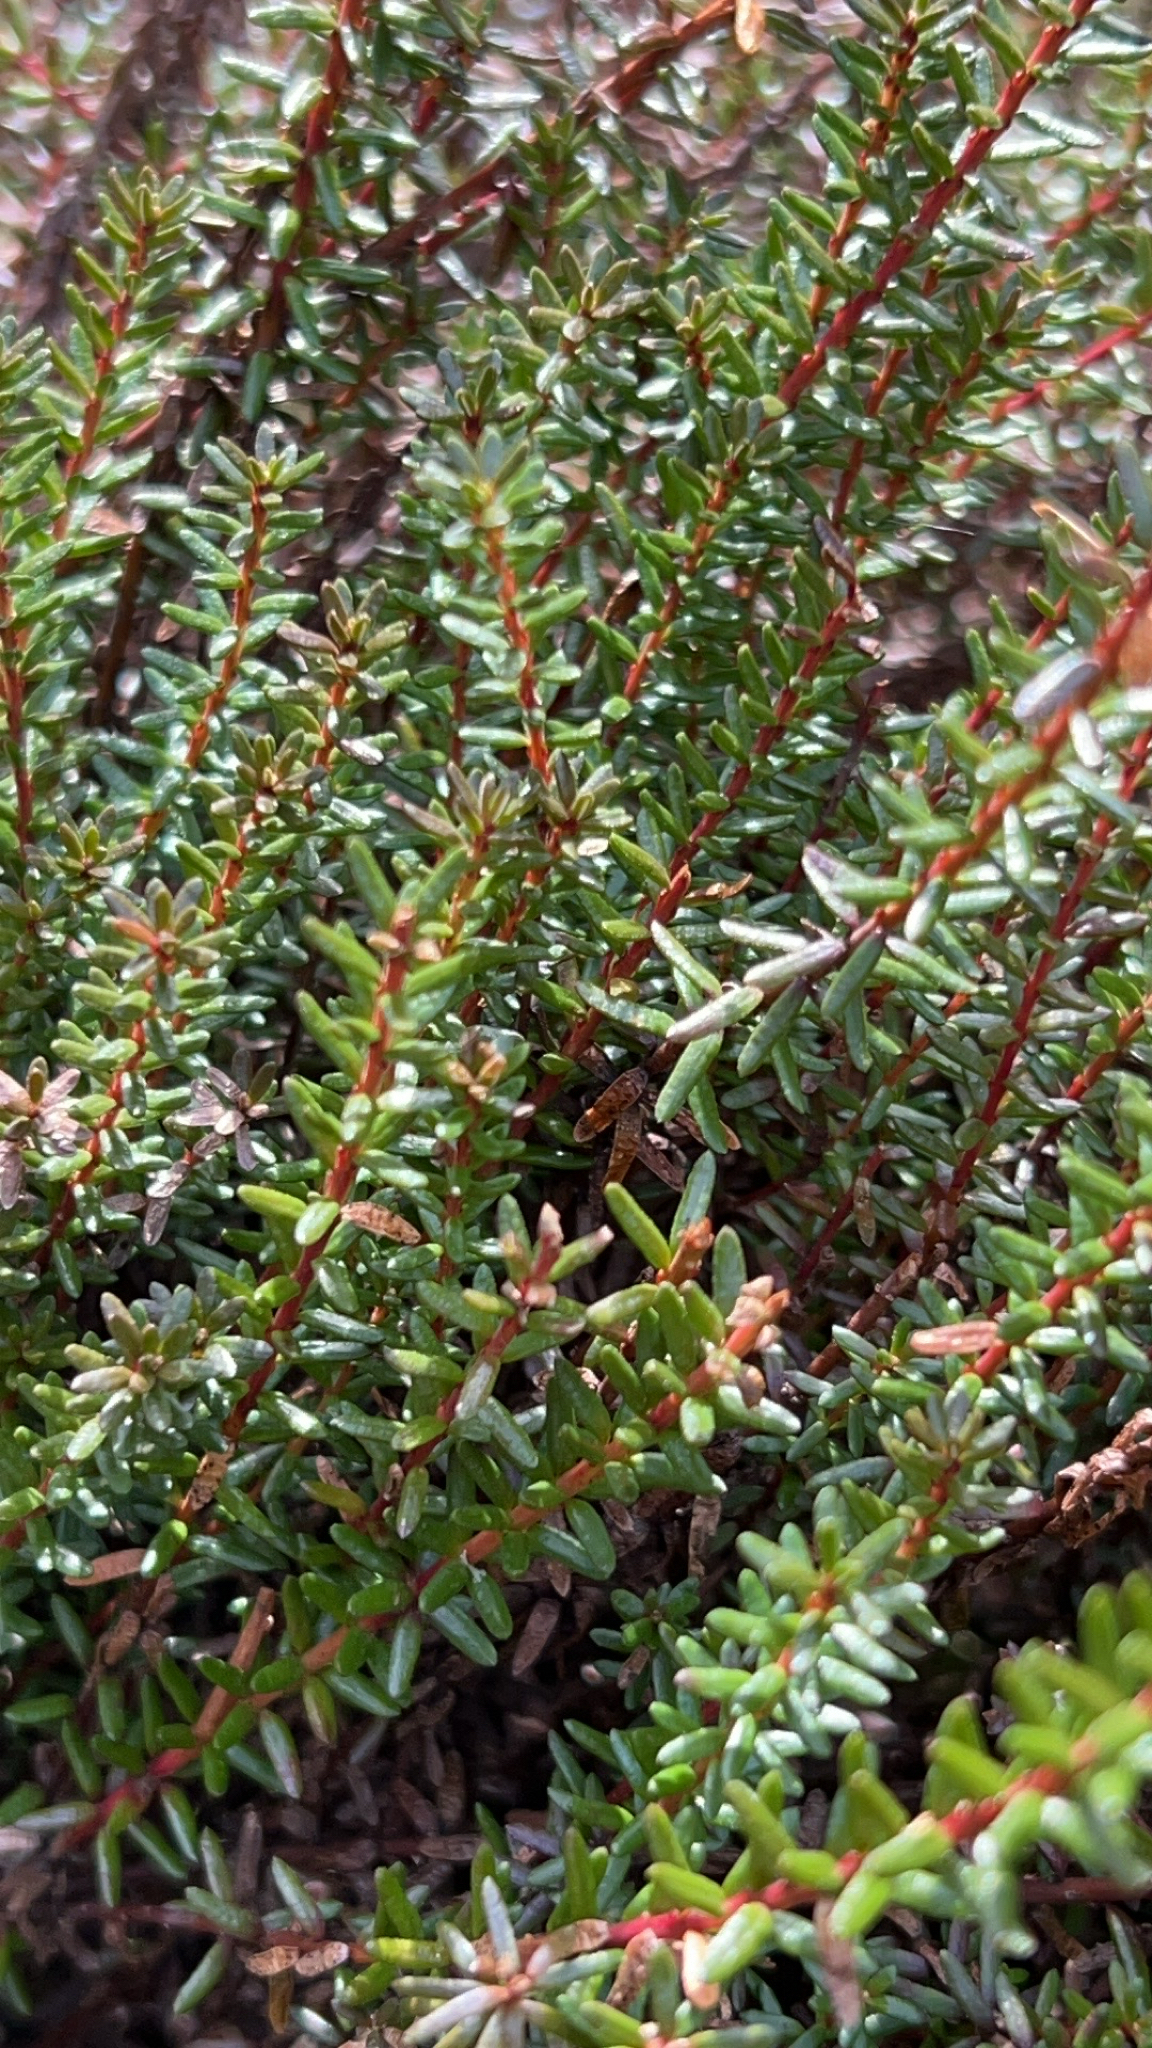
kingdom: Plantae
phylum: Tracheophyta
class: Magnoliopsida
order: Ericales
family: Ericaceae
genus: Empetrum
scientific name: Empetrum nigrum
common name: Black crowberry
